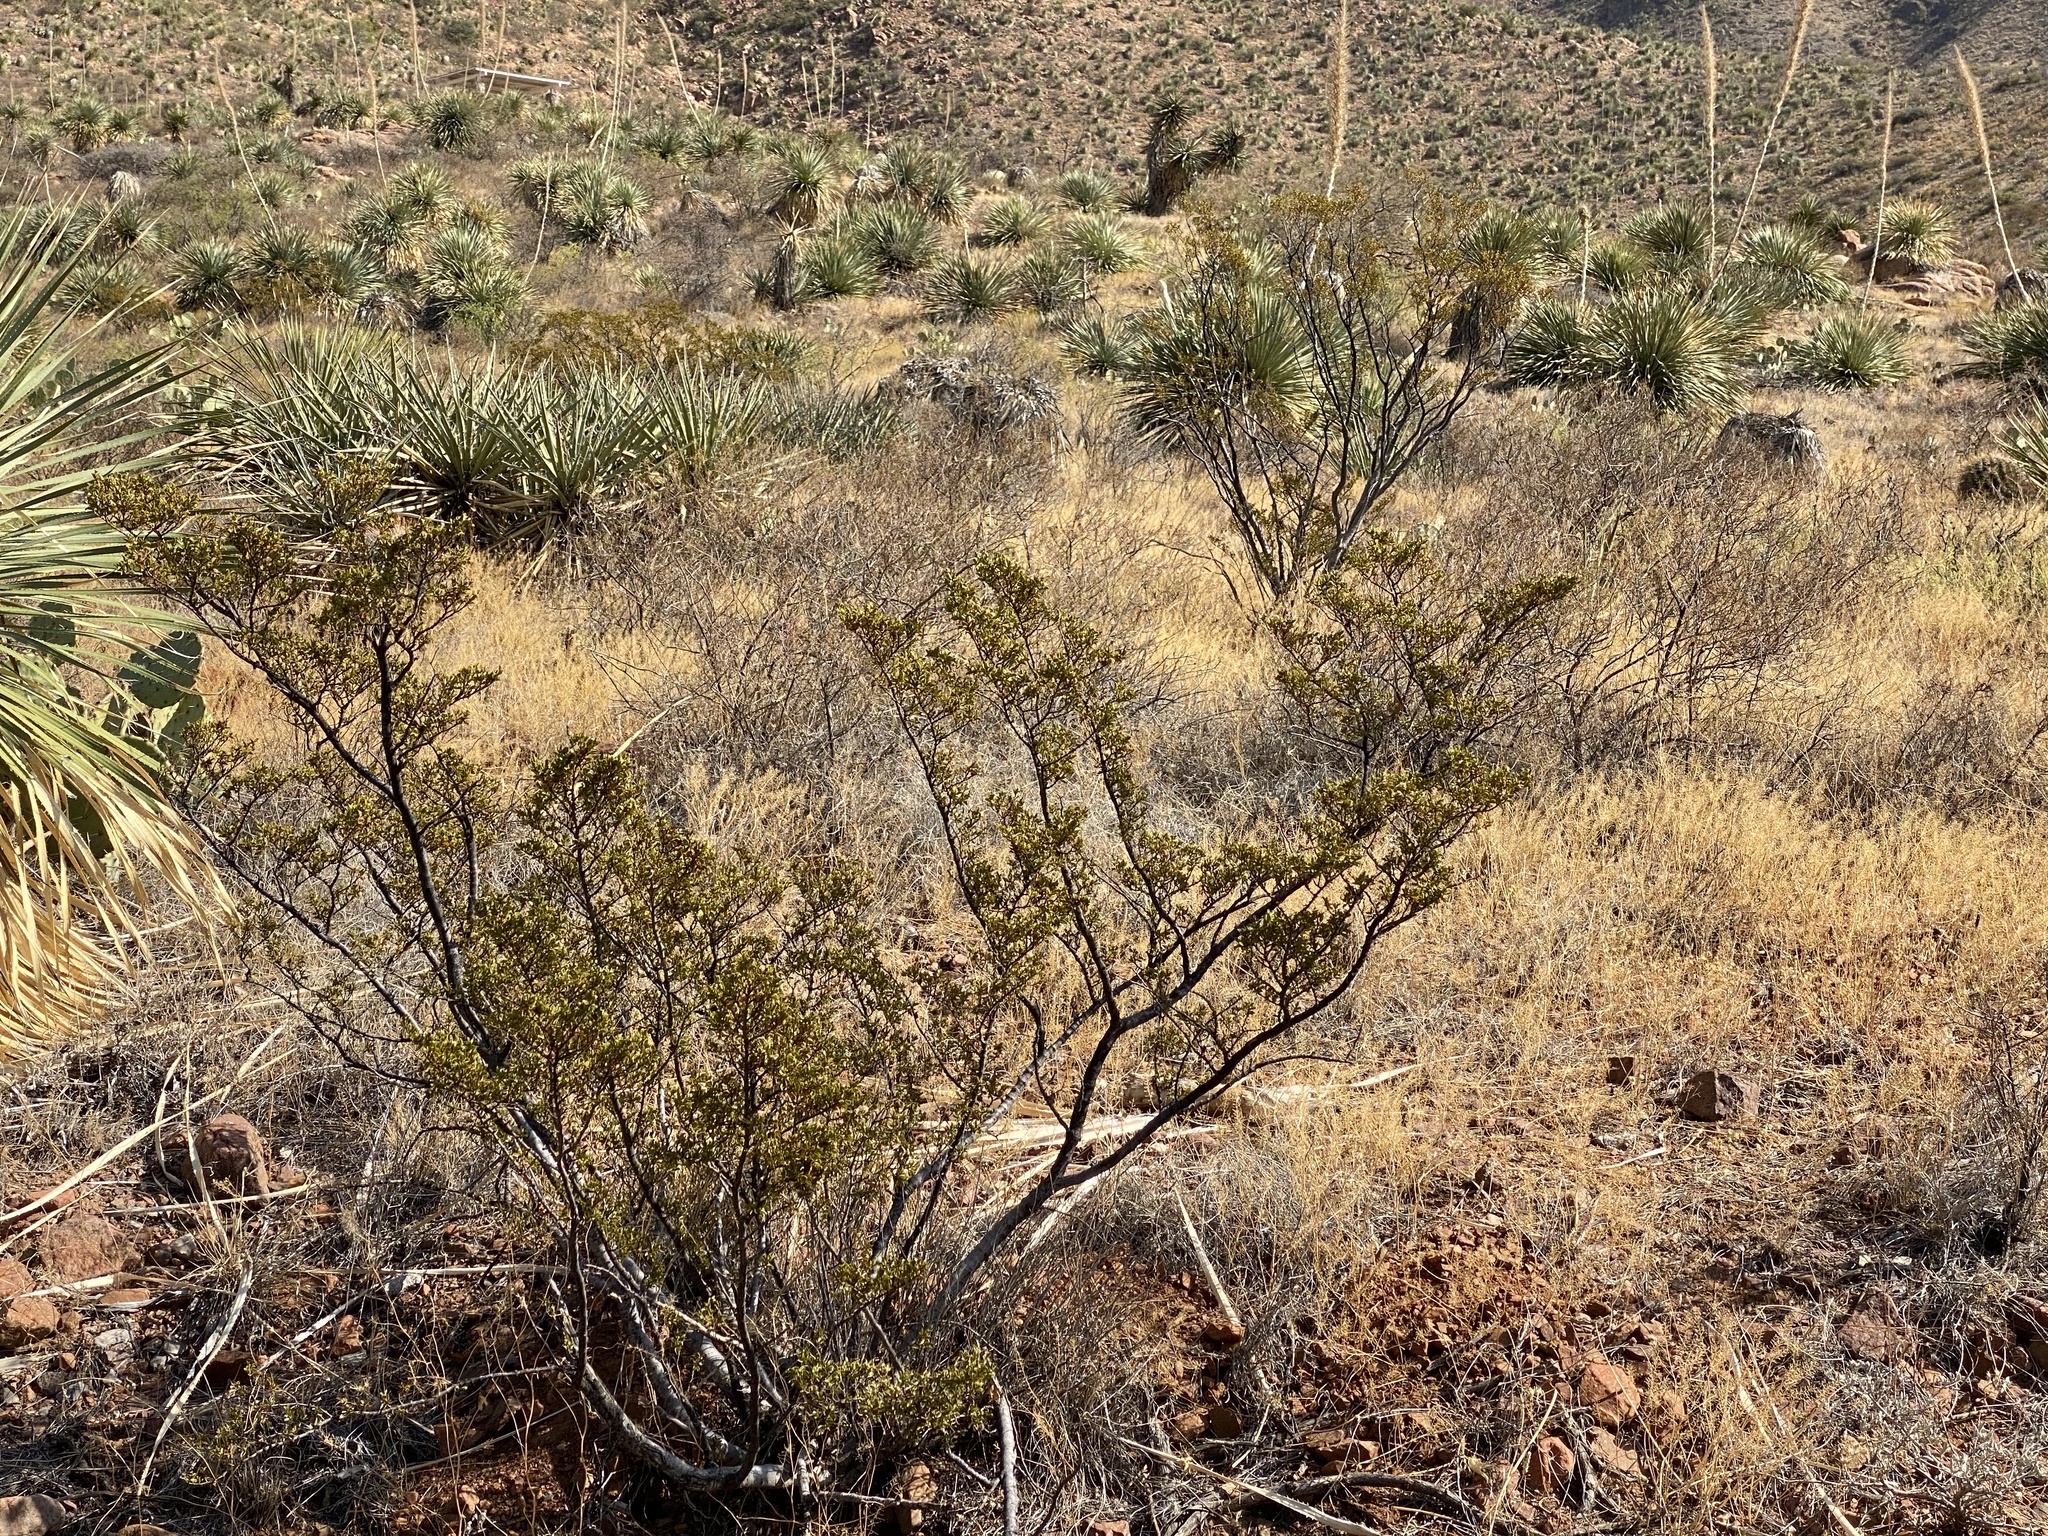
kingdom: Plantae
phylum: Tracheophyta
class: Magnoliopsida
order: Zygophyllales
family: Zygophyllaceae
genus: Larrea
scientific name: Larrea tridentata
